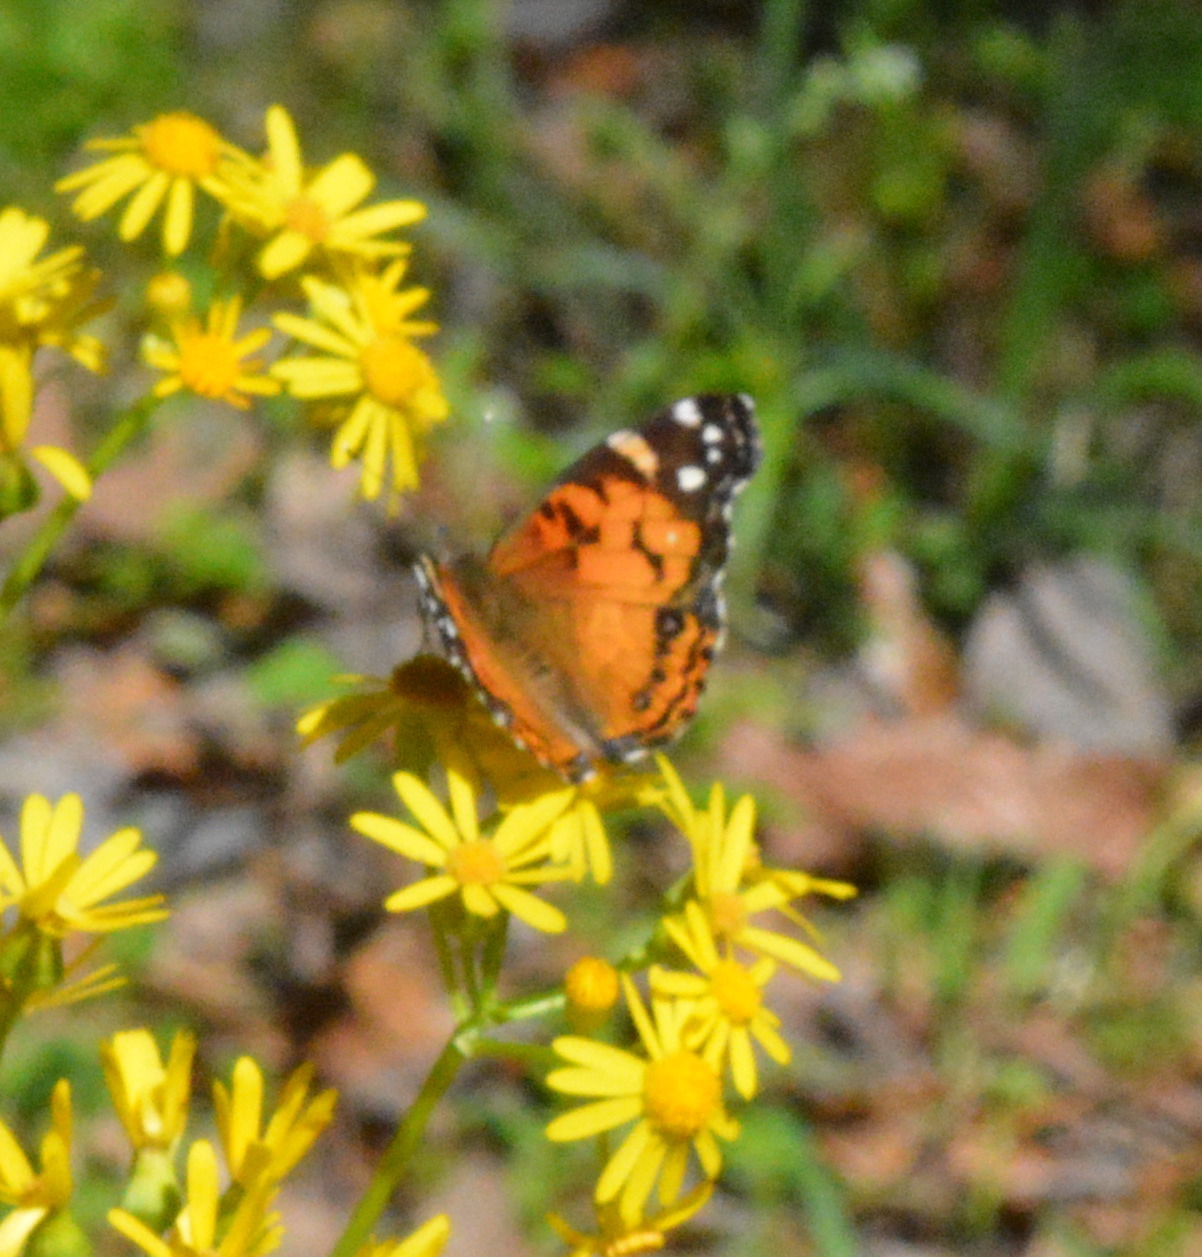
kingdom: Animalia
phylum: Arthropoda
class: Insecta
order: Lepidoptera
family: Nymphalidae
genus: Vanessa
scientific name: Vanessa virginiensis
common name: American lady
